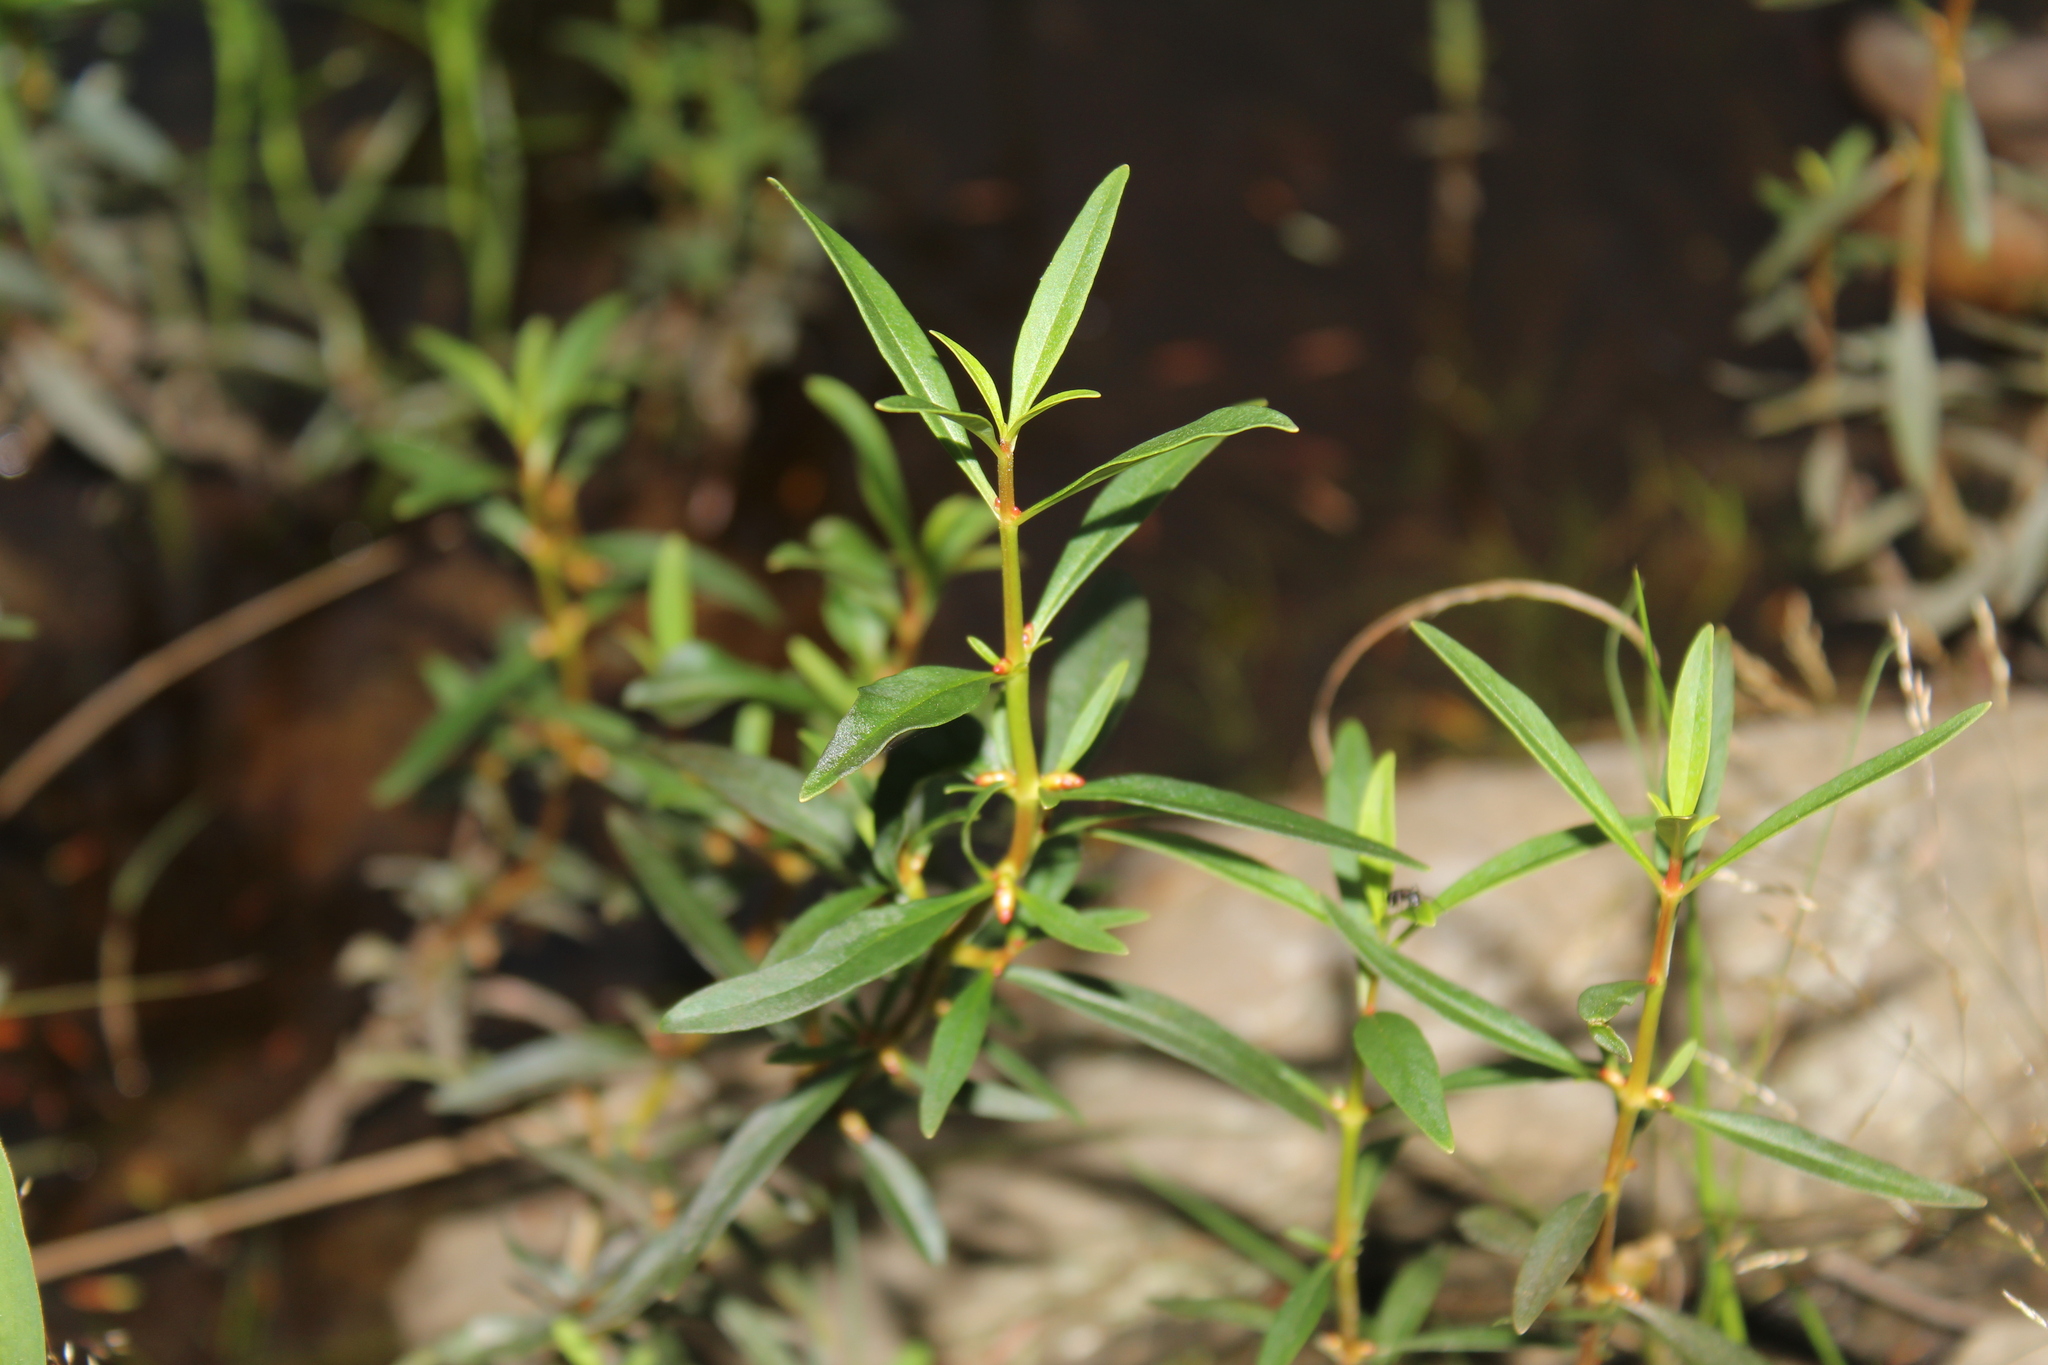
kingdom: Plantae
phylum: Tracheophyta
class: Magnoliopsida
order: Ericales
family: Primulaceae
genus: Lysimachia
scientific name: Lysimachia terrestris
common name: Lake loosestrife
